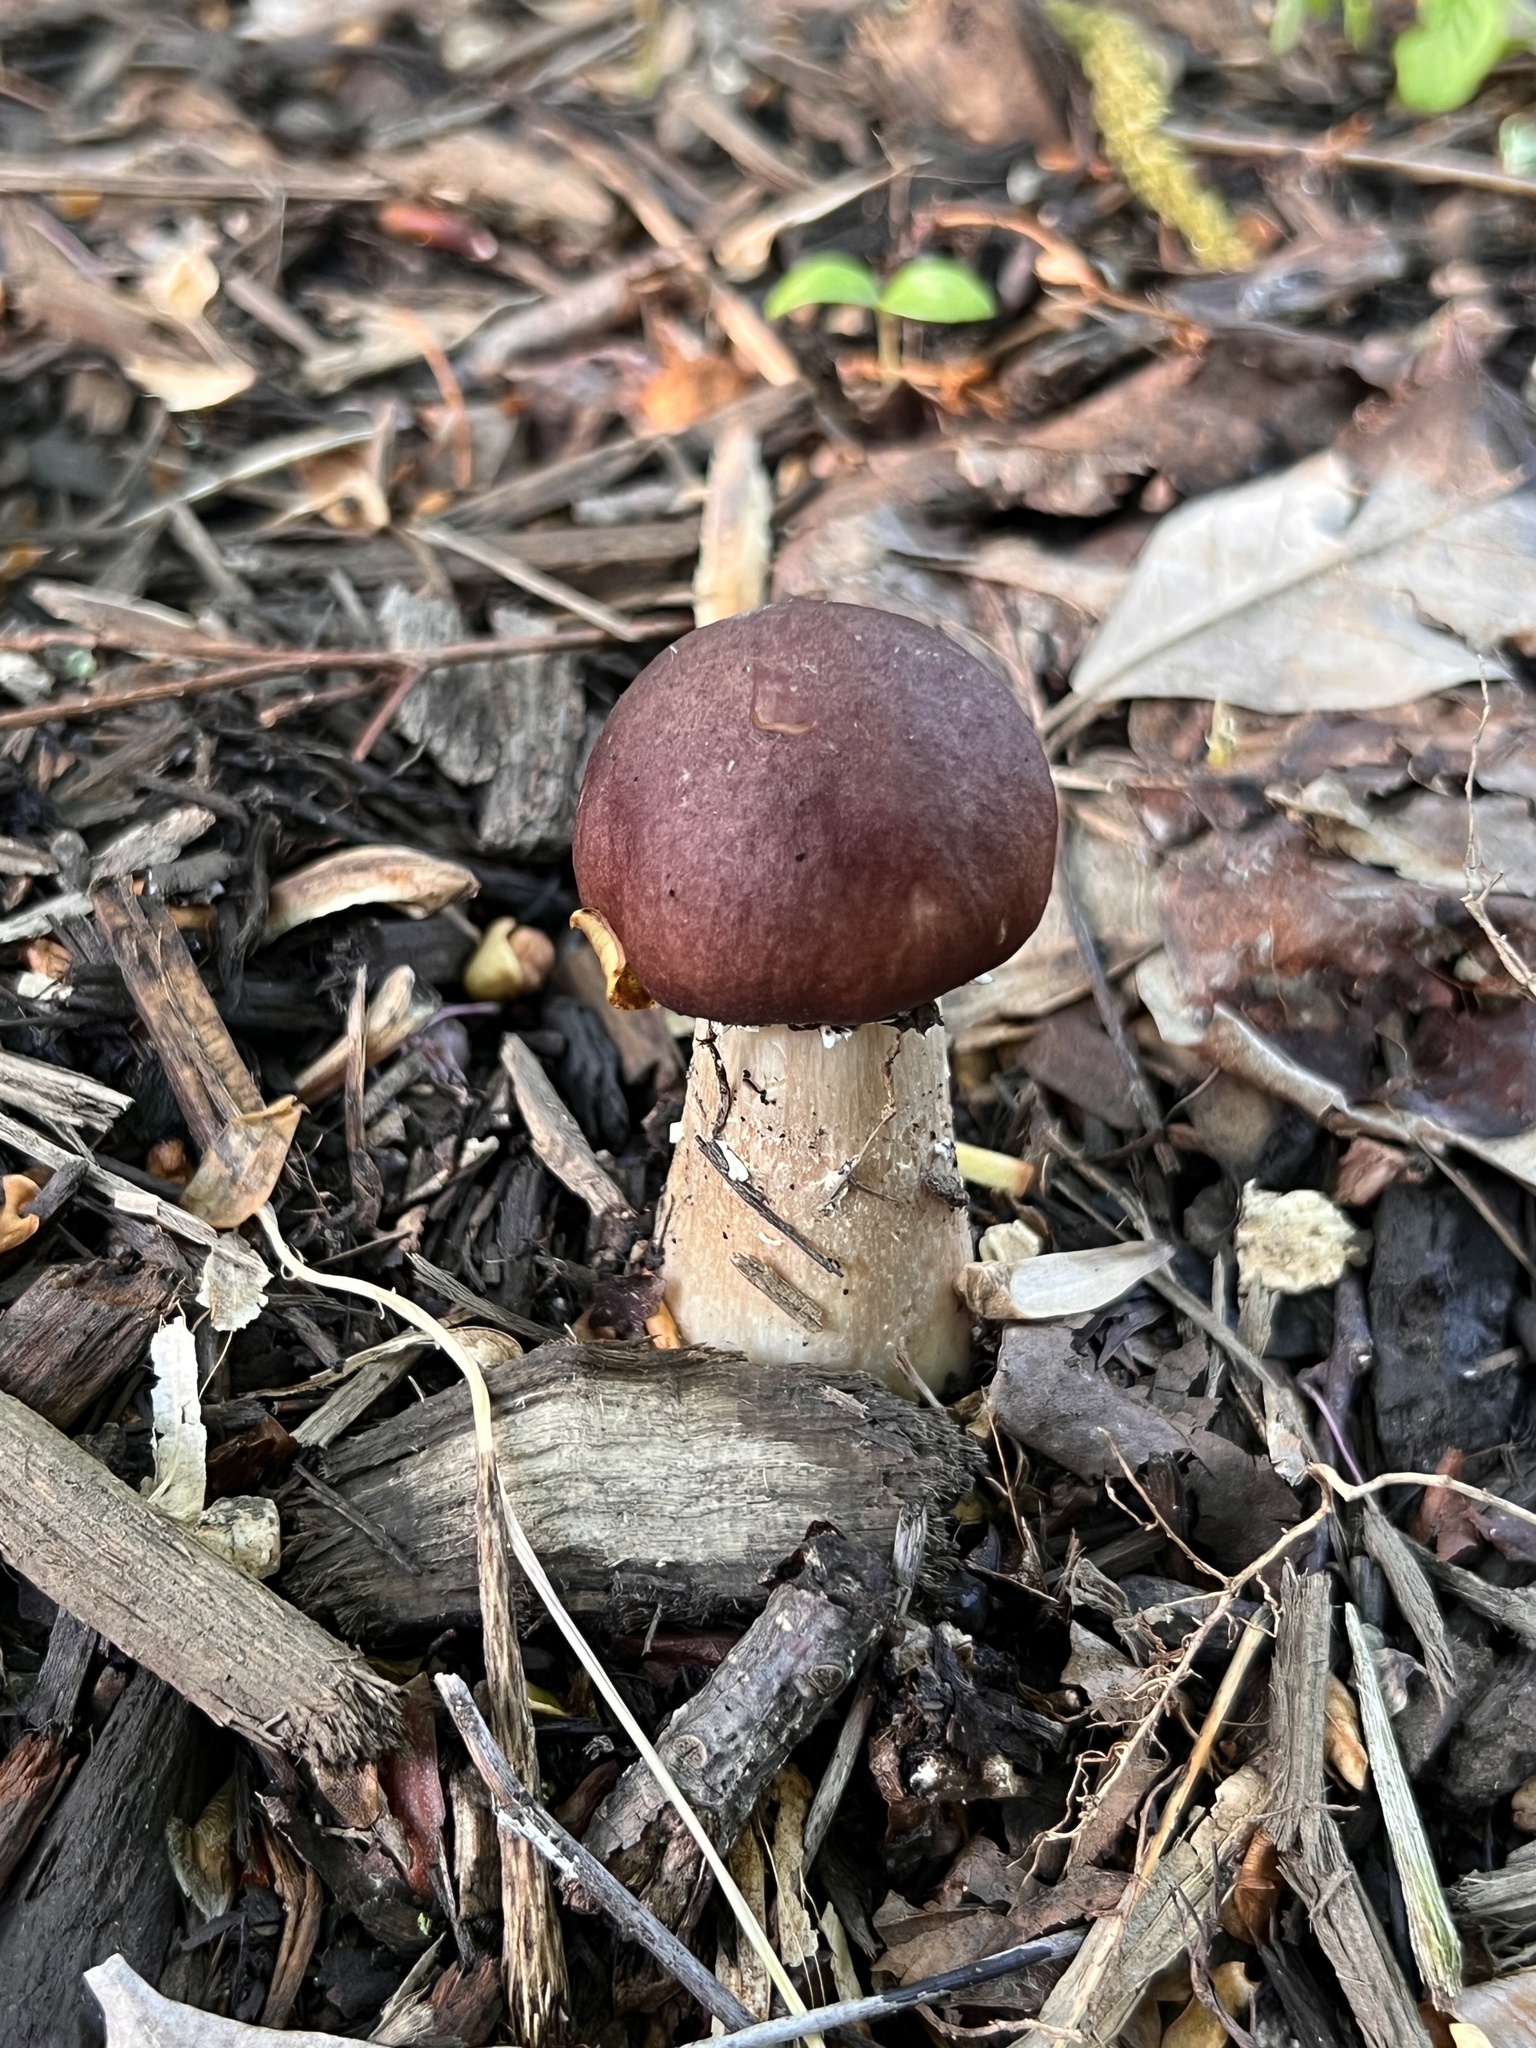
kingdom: Fungi
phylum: Basidiomycota
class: Agaricomycetes
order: Agaricales
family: Strophariaceae
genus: Stropharia
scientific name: Stropharia rugosoannulata
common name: Wine roundhead
